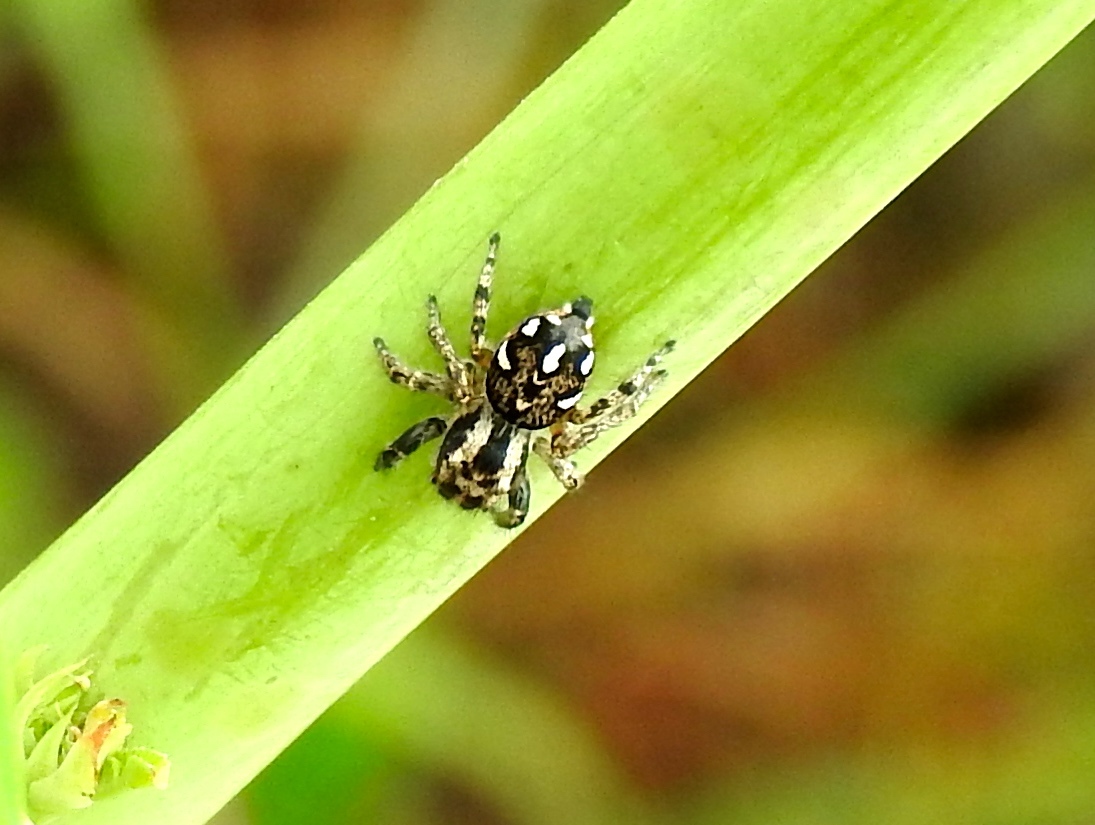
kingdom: Animalia
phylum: Arthropoda
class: Arachnida
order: Araneae
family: Salticidae
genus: Habronattus
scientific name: Habronattus
